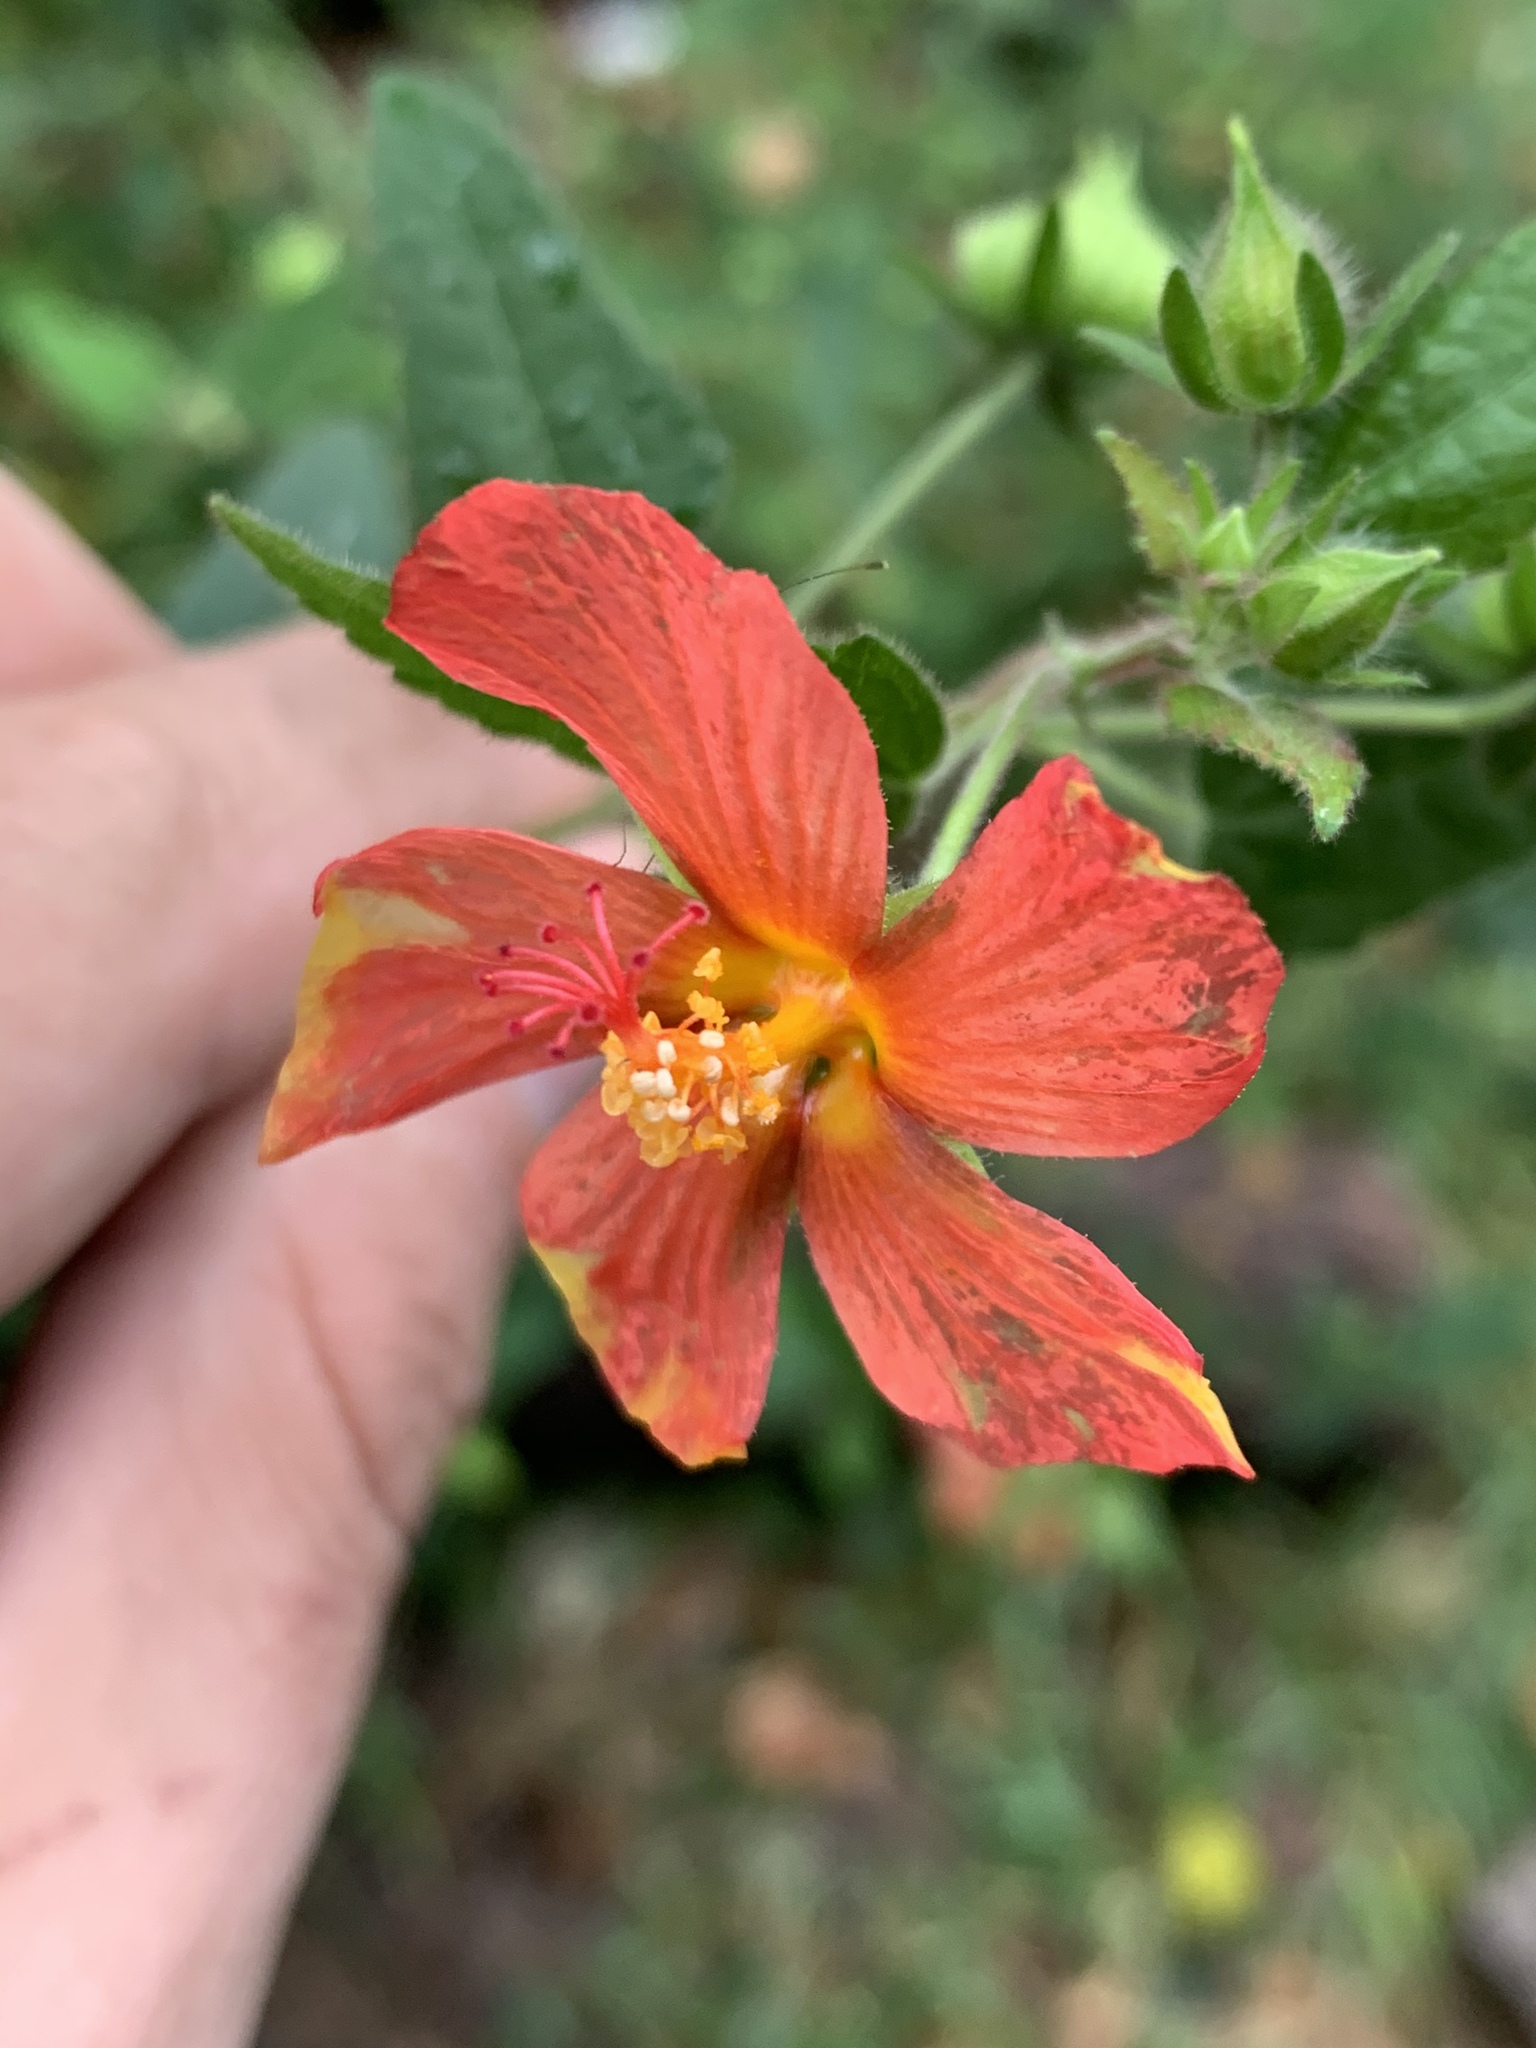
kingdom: Plantae
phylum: Tracheophyta
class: Magnoliopsida
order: Malvales
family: Malvaceae
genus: Pavonia
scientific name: Pavonia missionum
